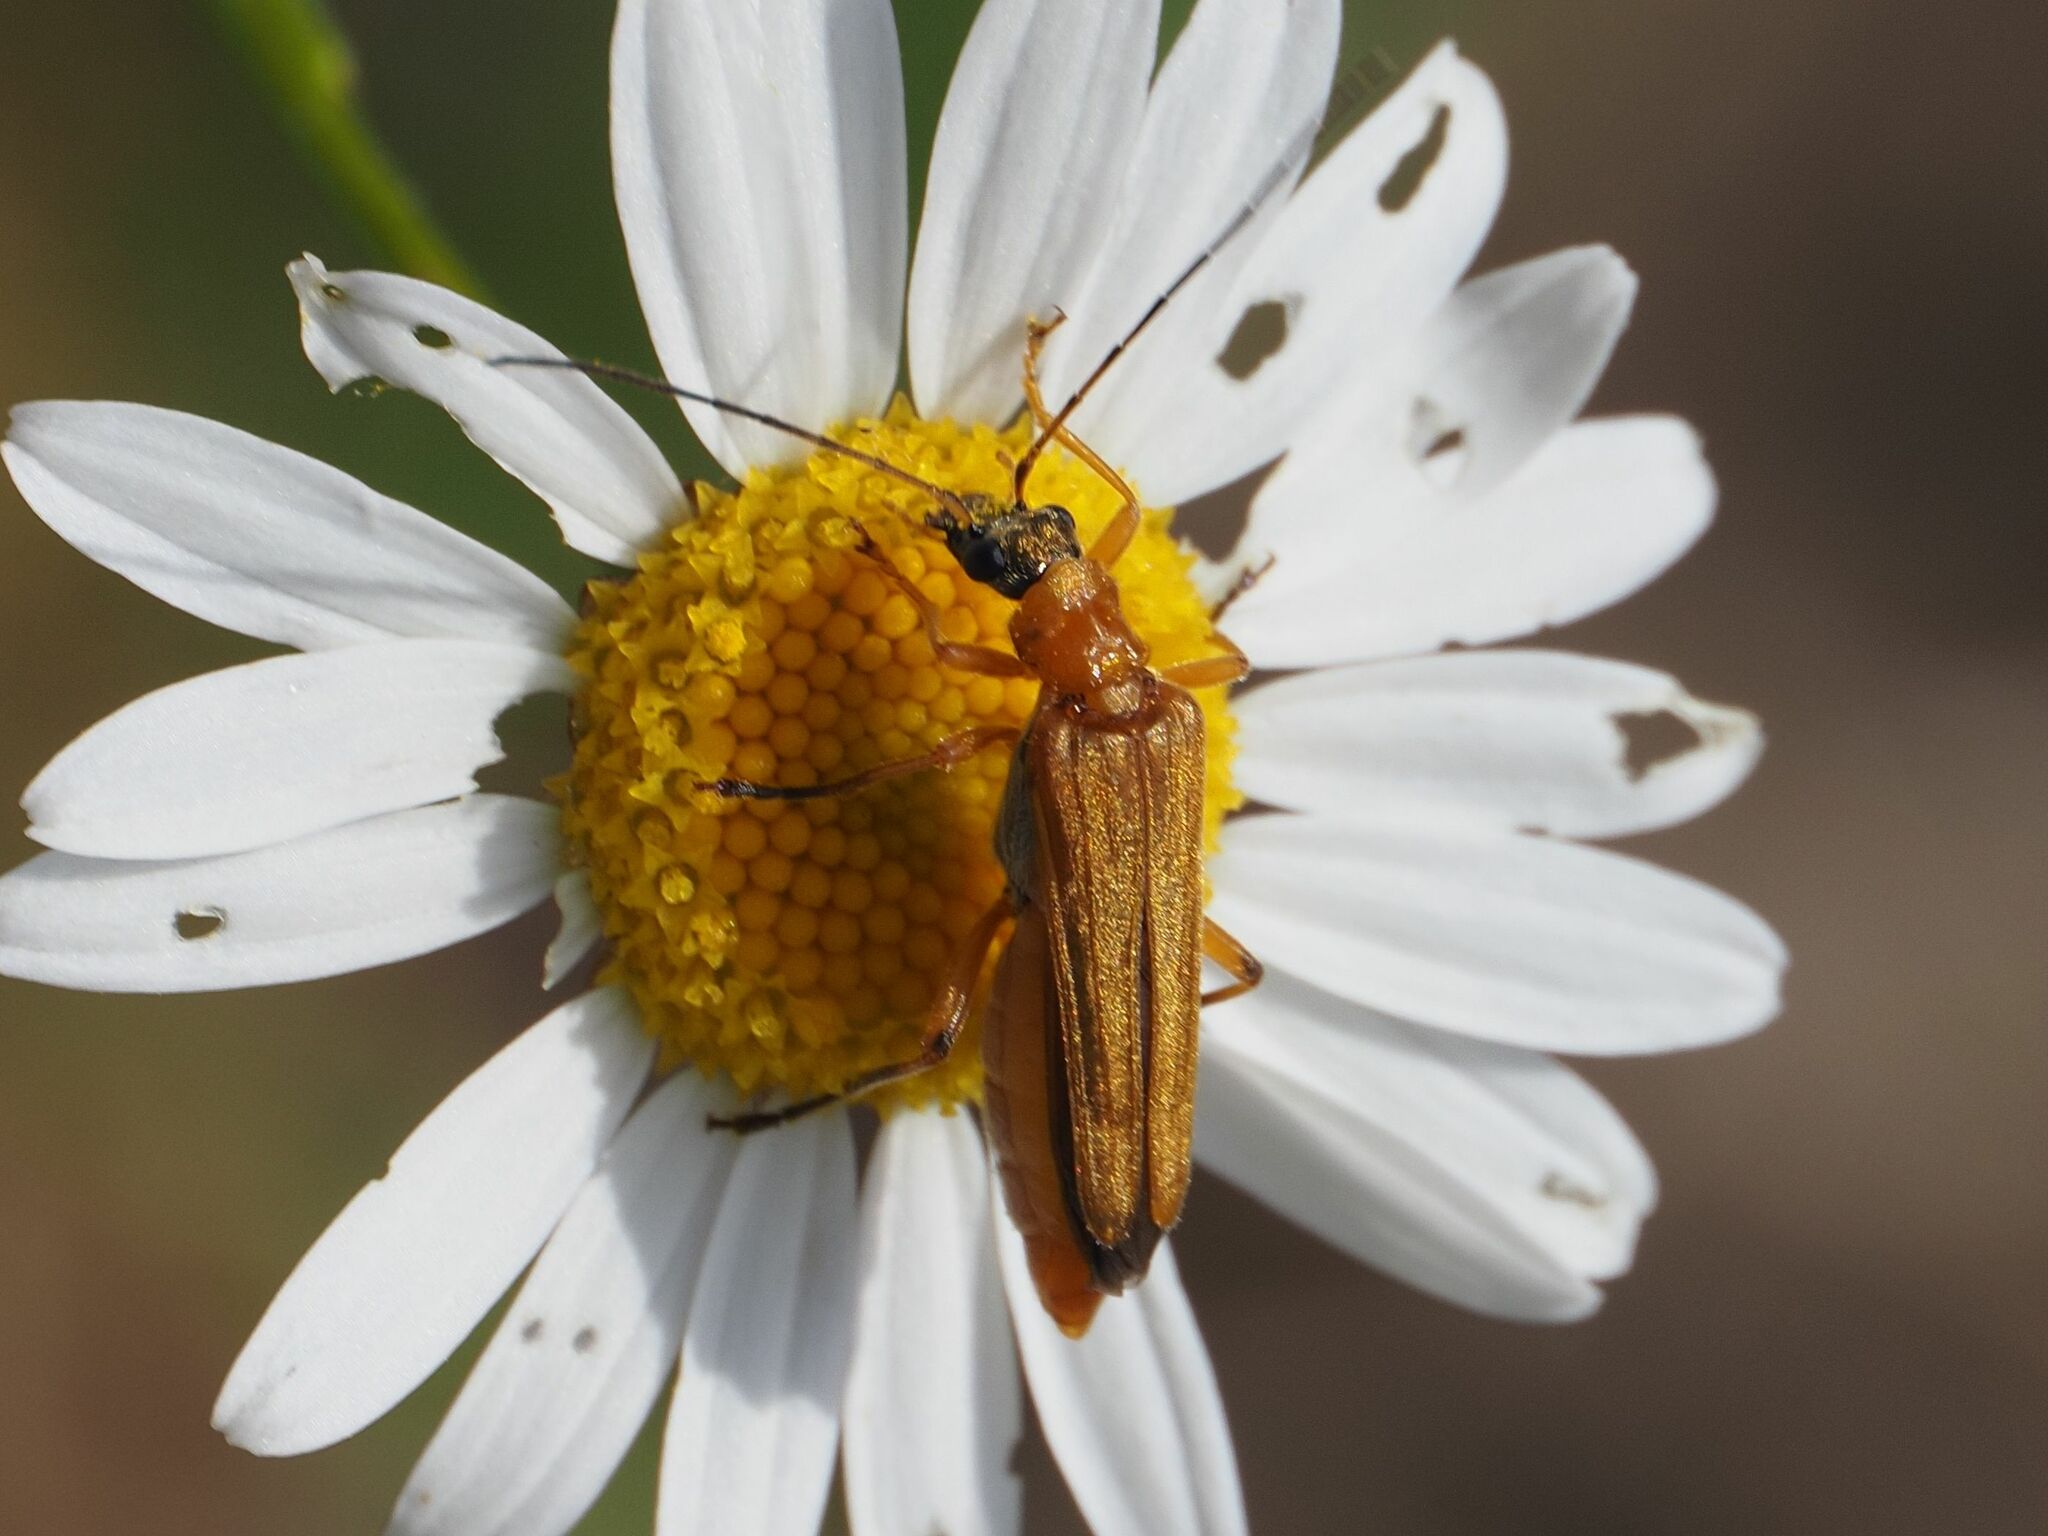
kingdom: Animalia
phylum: Arthropoda
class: Insecta
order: Coleoptera
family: Oedemeridae
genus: Oedemera
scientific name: Oedemera podagrariae
